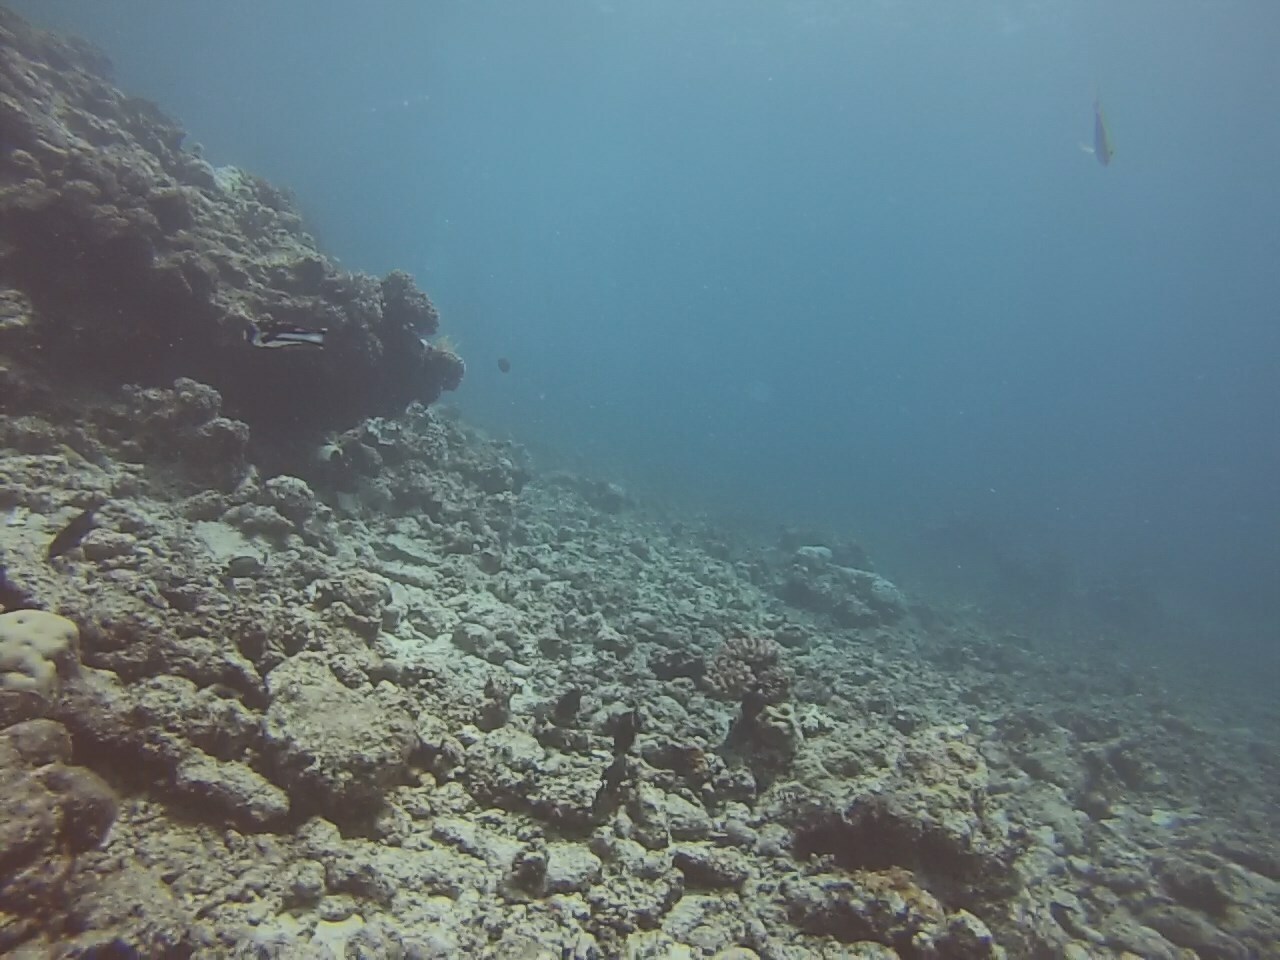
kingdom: Animalia
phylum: Chordata
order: Perciformes
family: Lutjanidae
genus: Macolor
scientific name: Macolor niger
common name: Black snapper
